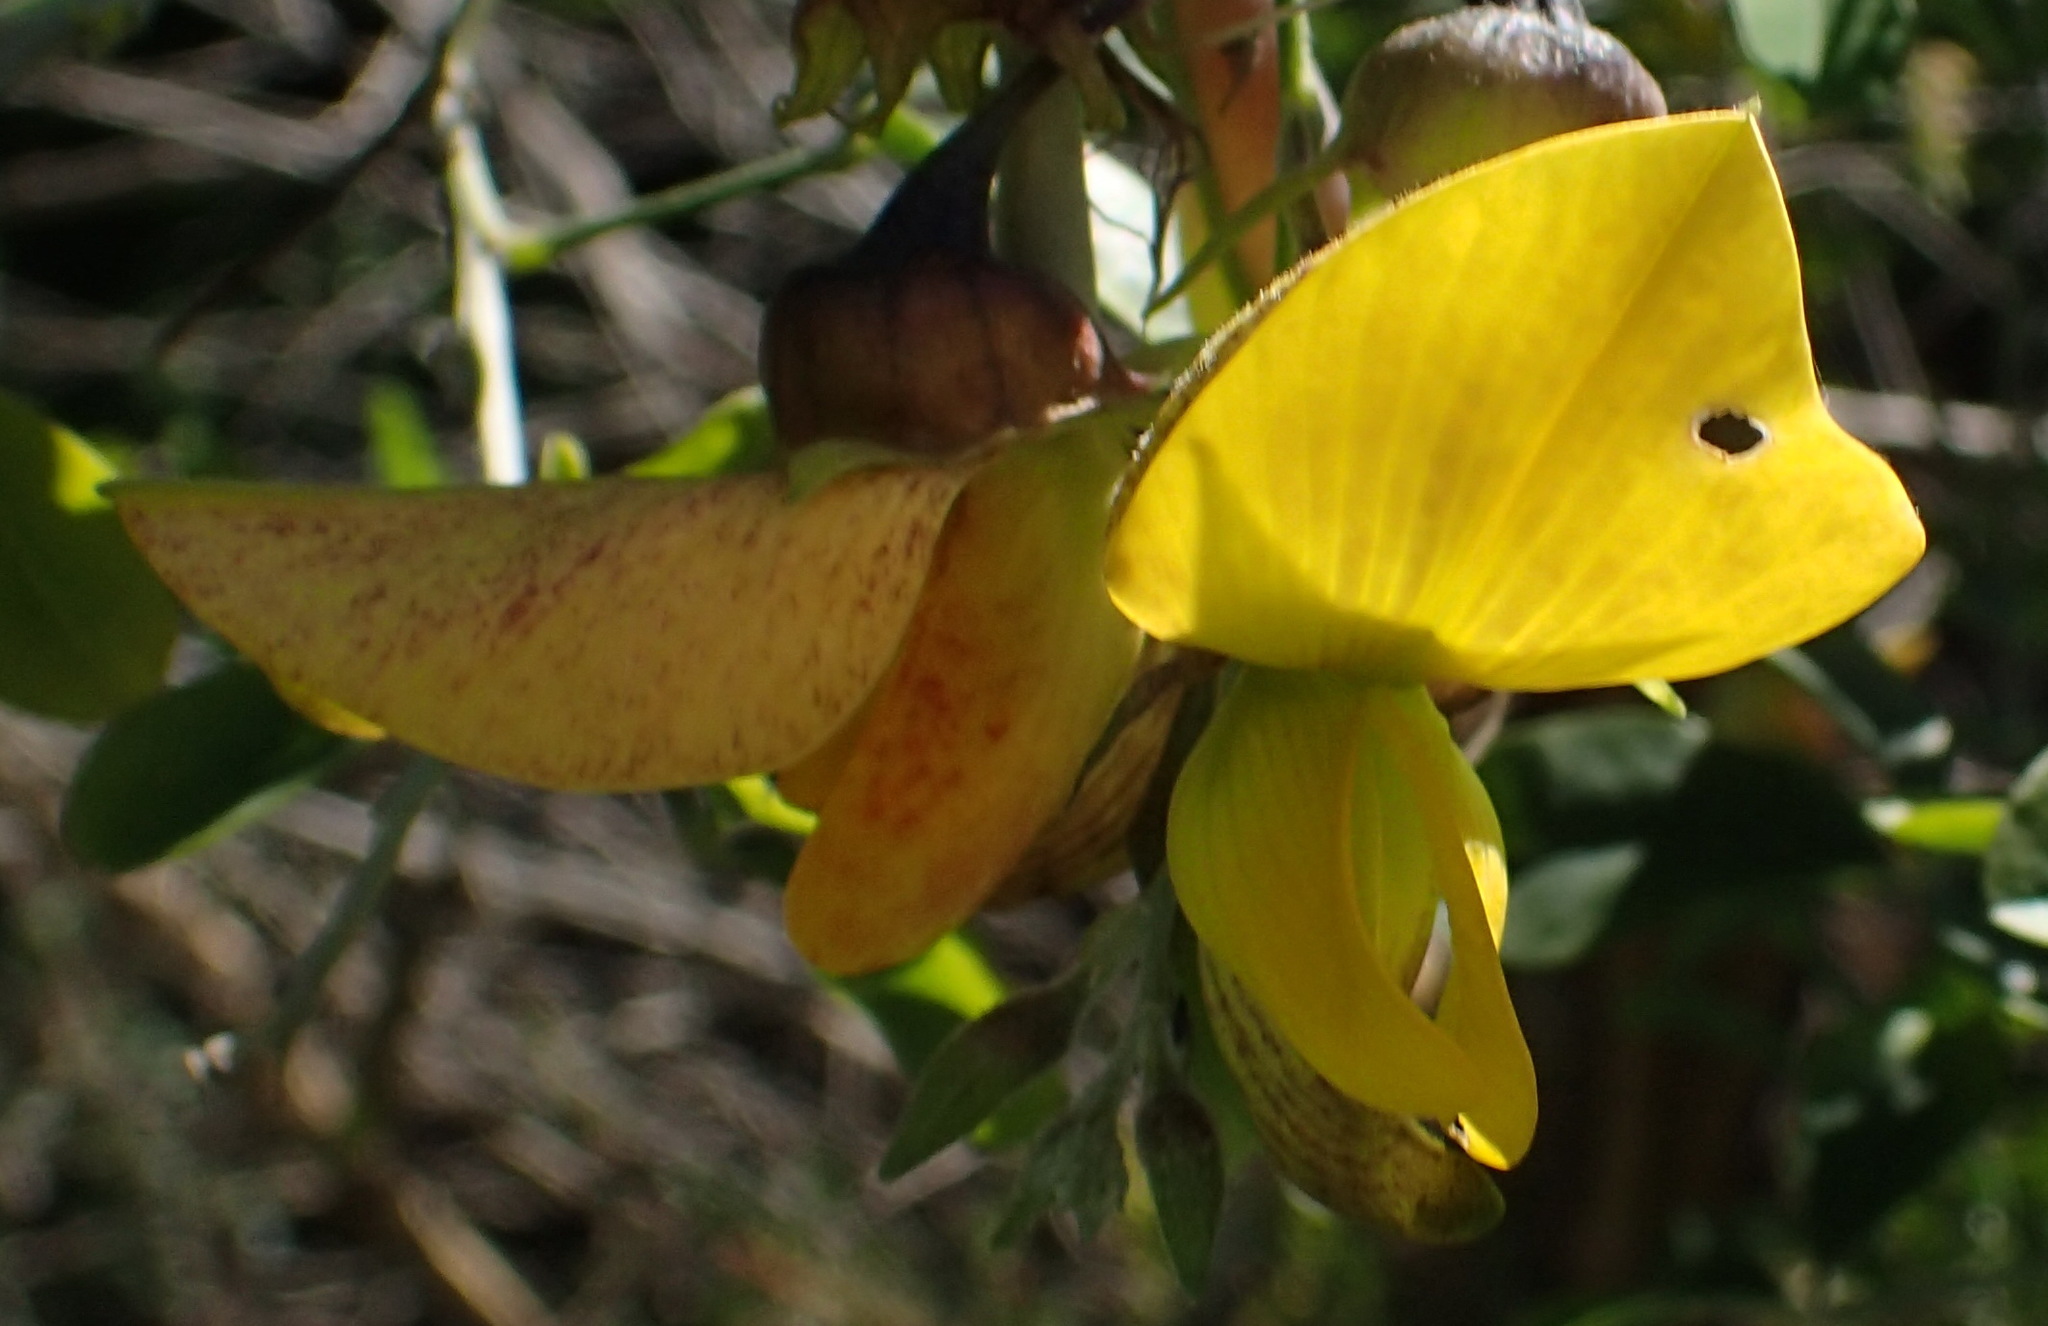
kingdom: Plantae
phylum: Tracheophyta
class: Magnoliopsida
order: Fabales
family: Fabaceae
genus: Crotalaria
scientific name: Crotalaria capensis
